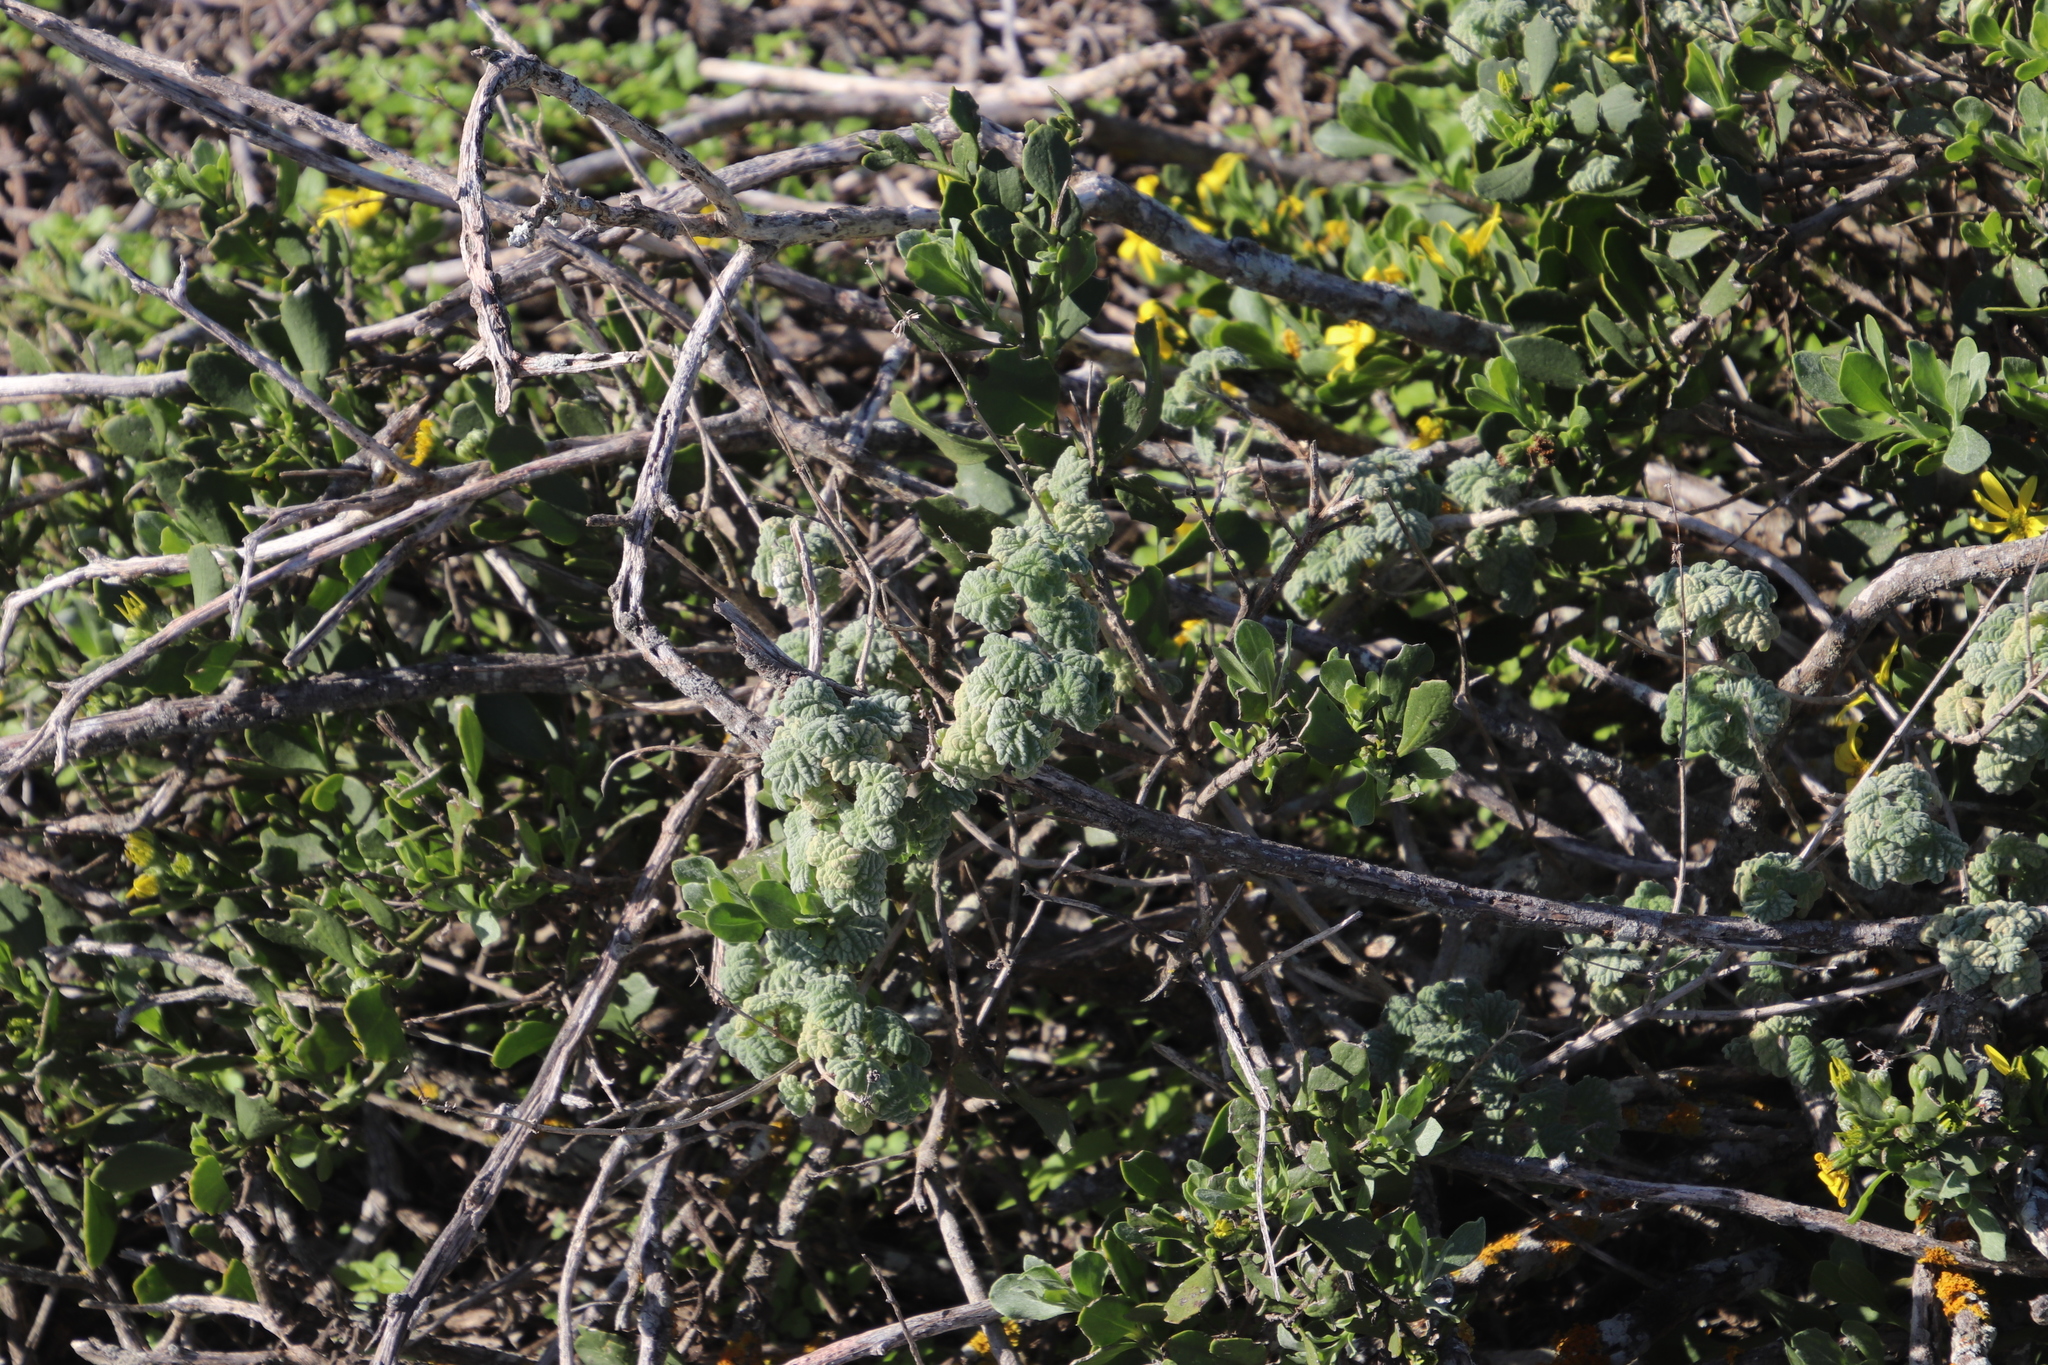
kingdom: Plantae
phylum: Tracheophyta
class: Magnoliopsida
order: Lamiales
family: Lamiaceae
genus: Pseudodictamnus
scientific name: Pseudodictamnus africanus
